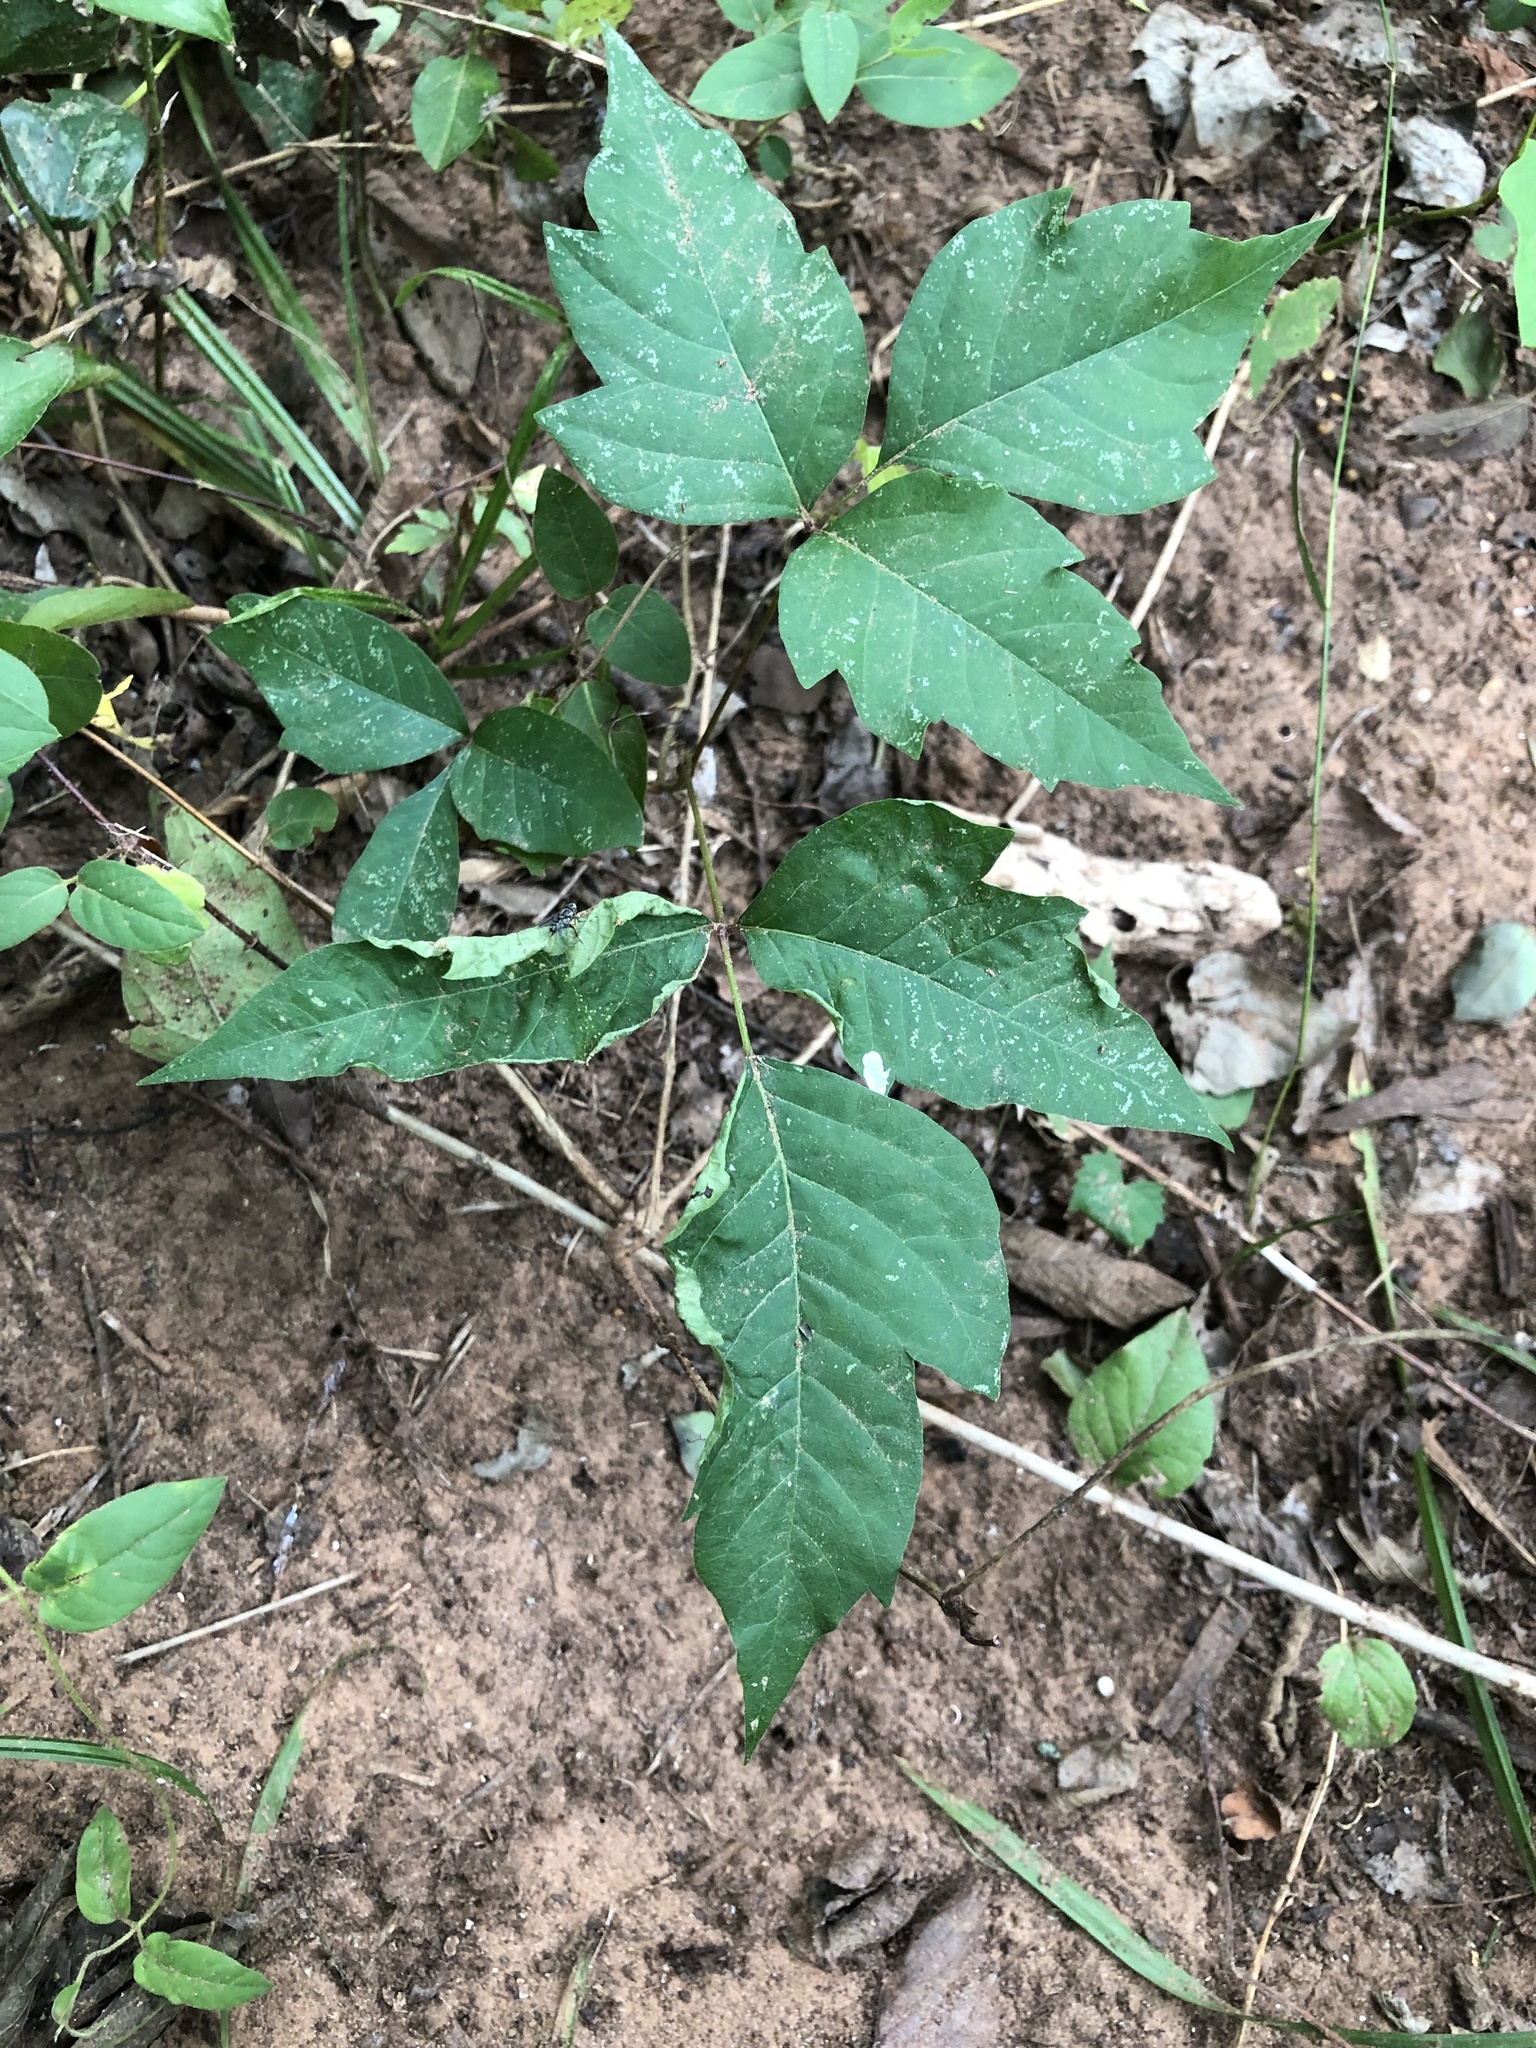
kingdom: Plantae
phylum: Tracheophyta
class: Magnoliopsida
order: Sapindales
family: Anacardiaceae
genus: Toxicodendron
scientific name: Toxicodendron radicans
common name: Poison ivy
